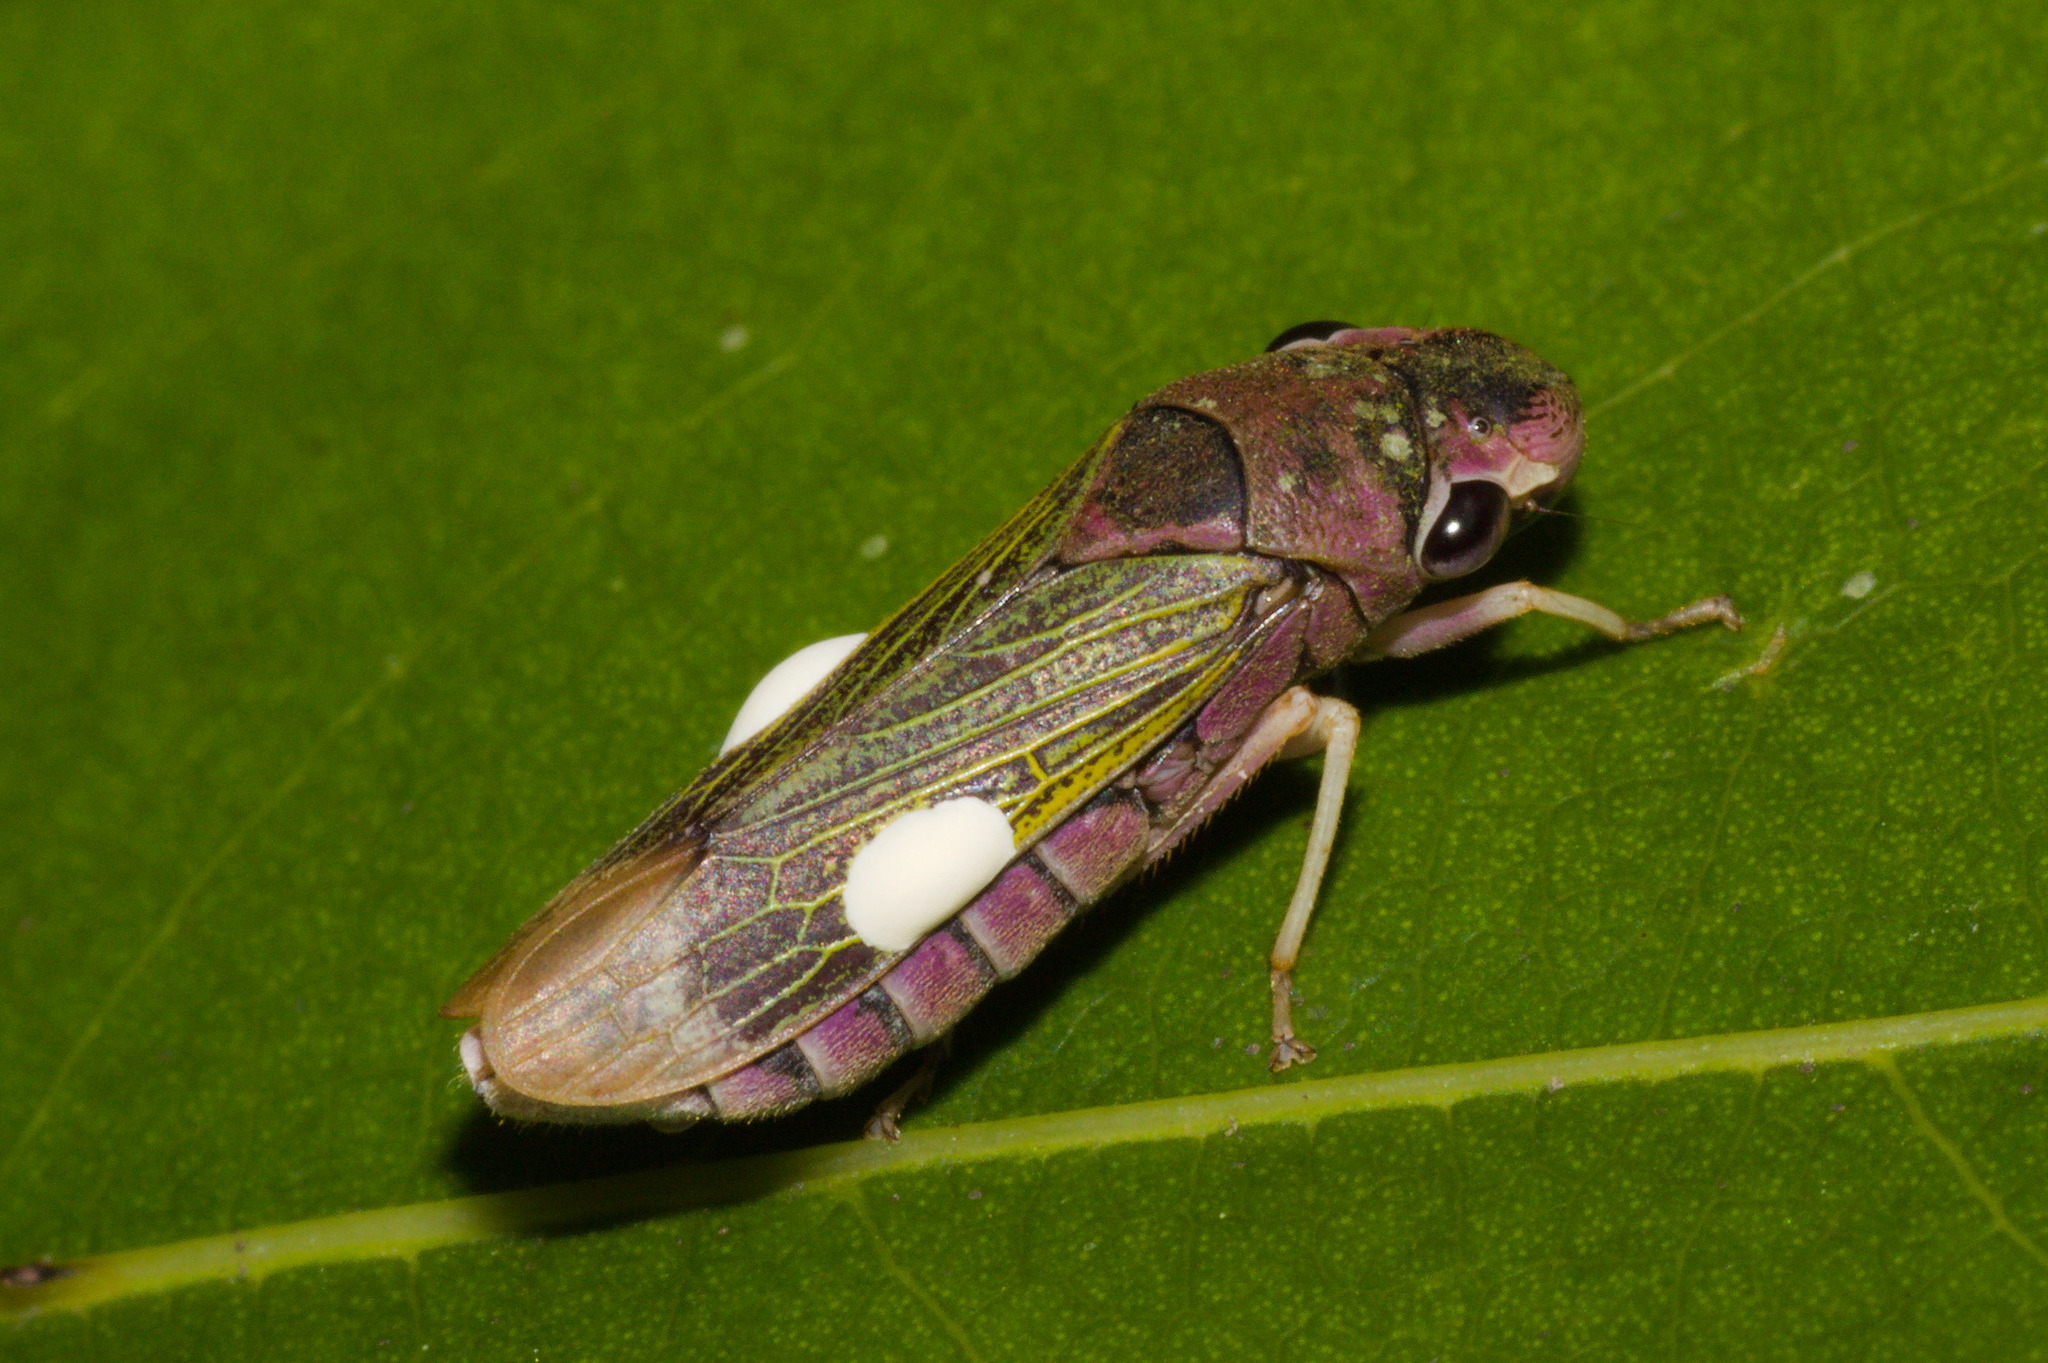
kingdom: Animalia
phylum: Arthropoda
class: Insecta
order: Hemiptera
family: Cicadellidae
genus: Oncometopia
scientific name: Oncometopia facialis
